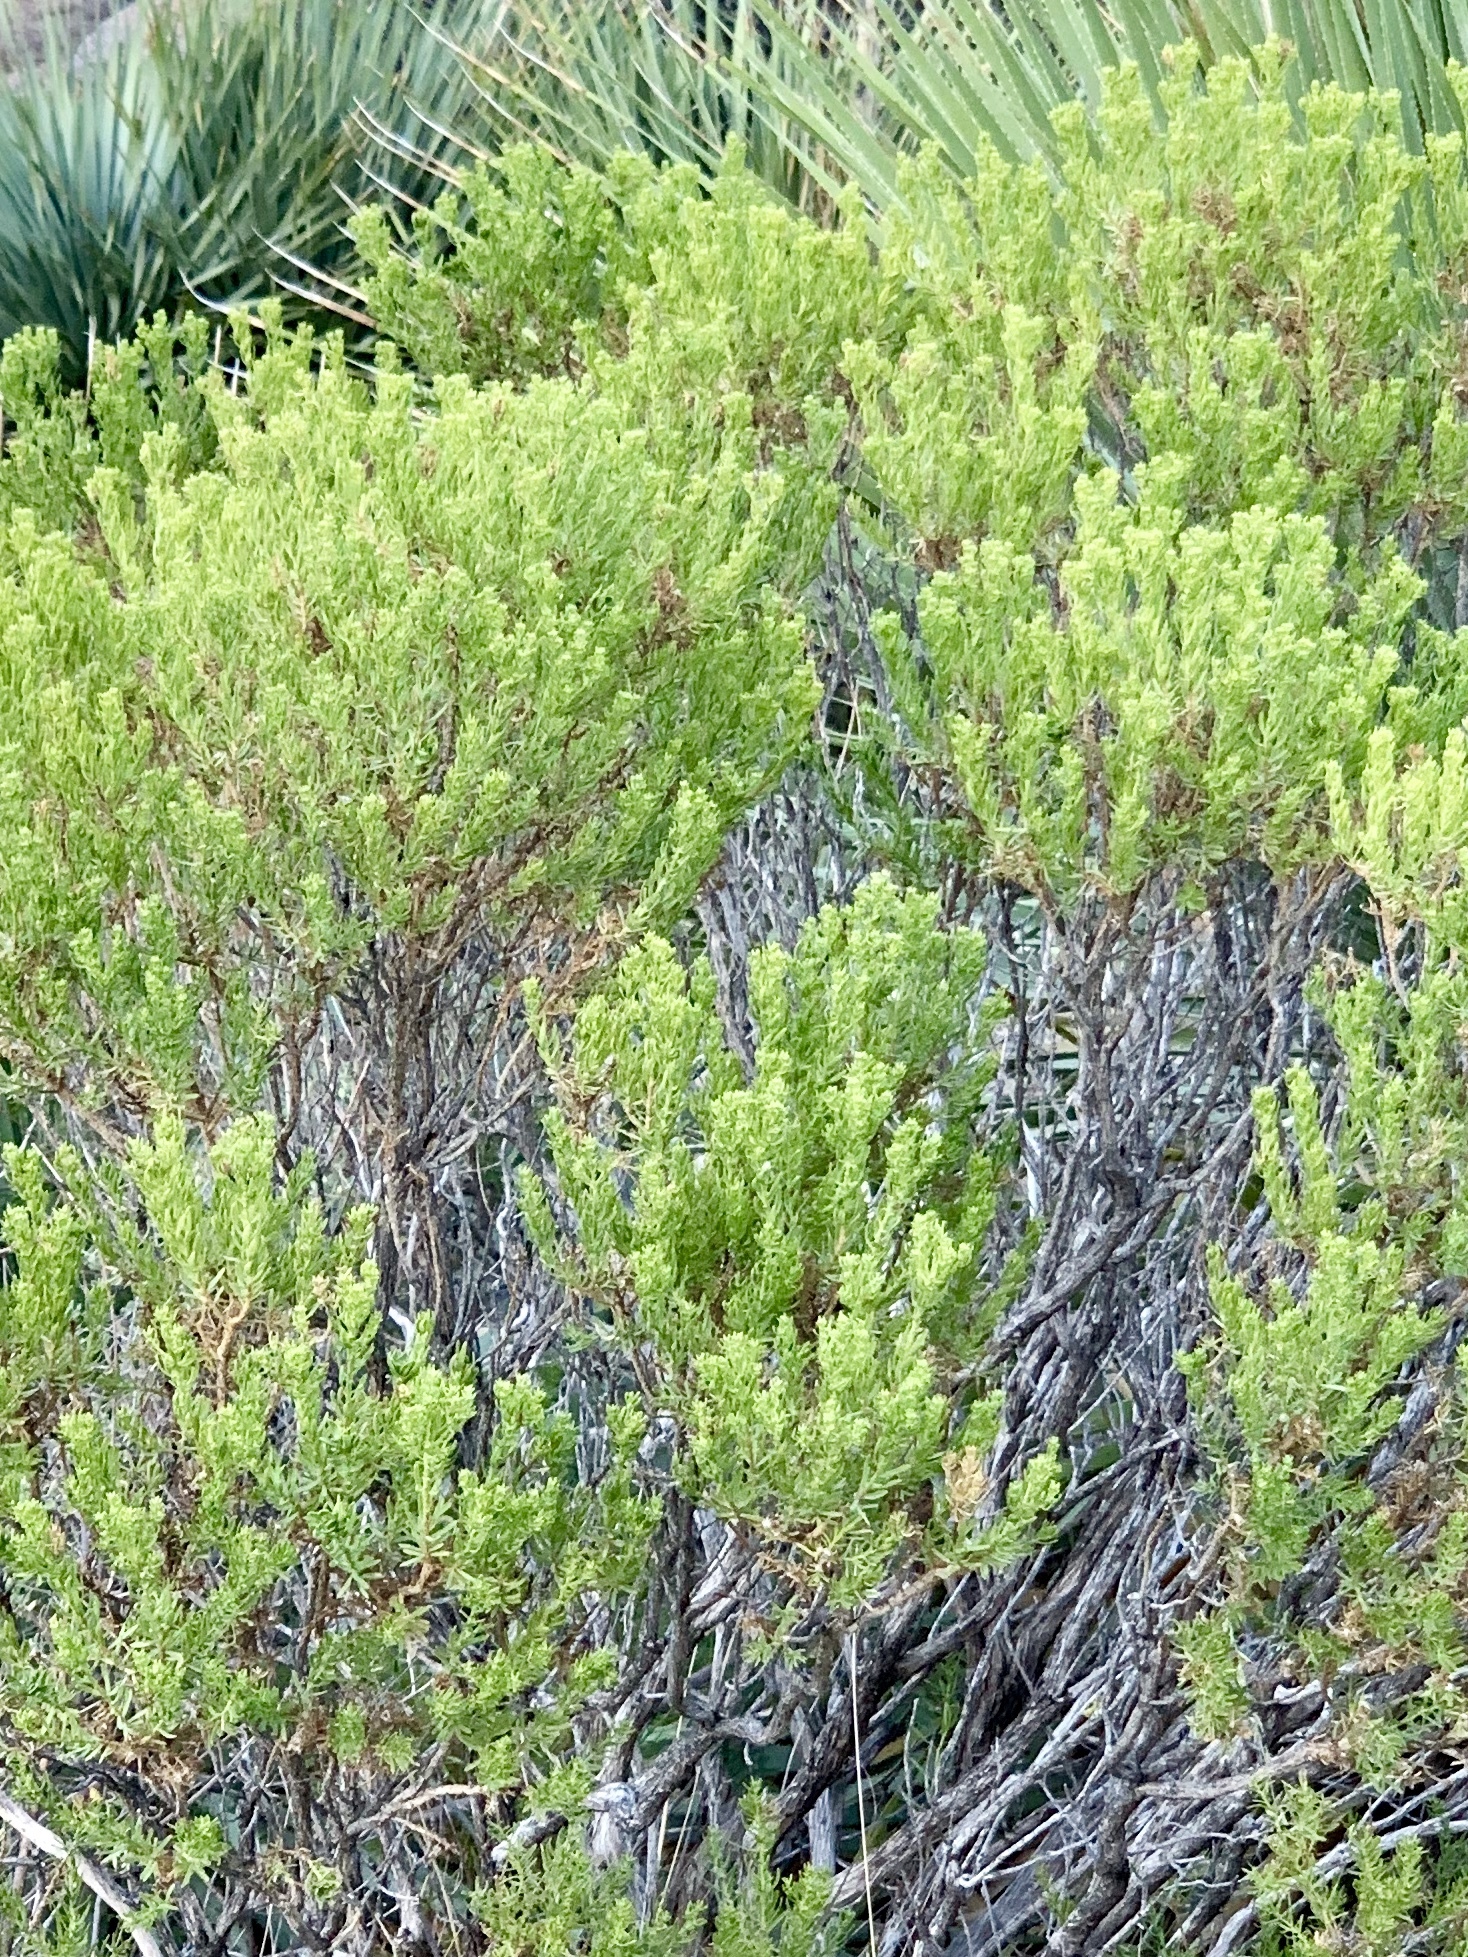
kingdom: Plantae
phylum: Tracheophyta
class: Magnoliopsida
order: Asterales
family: Asteraceae
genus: Ericameria
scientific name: Ericameria laricifolia
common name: Turpentine-bush
